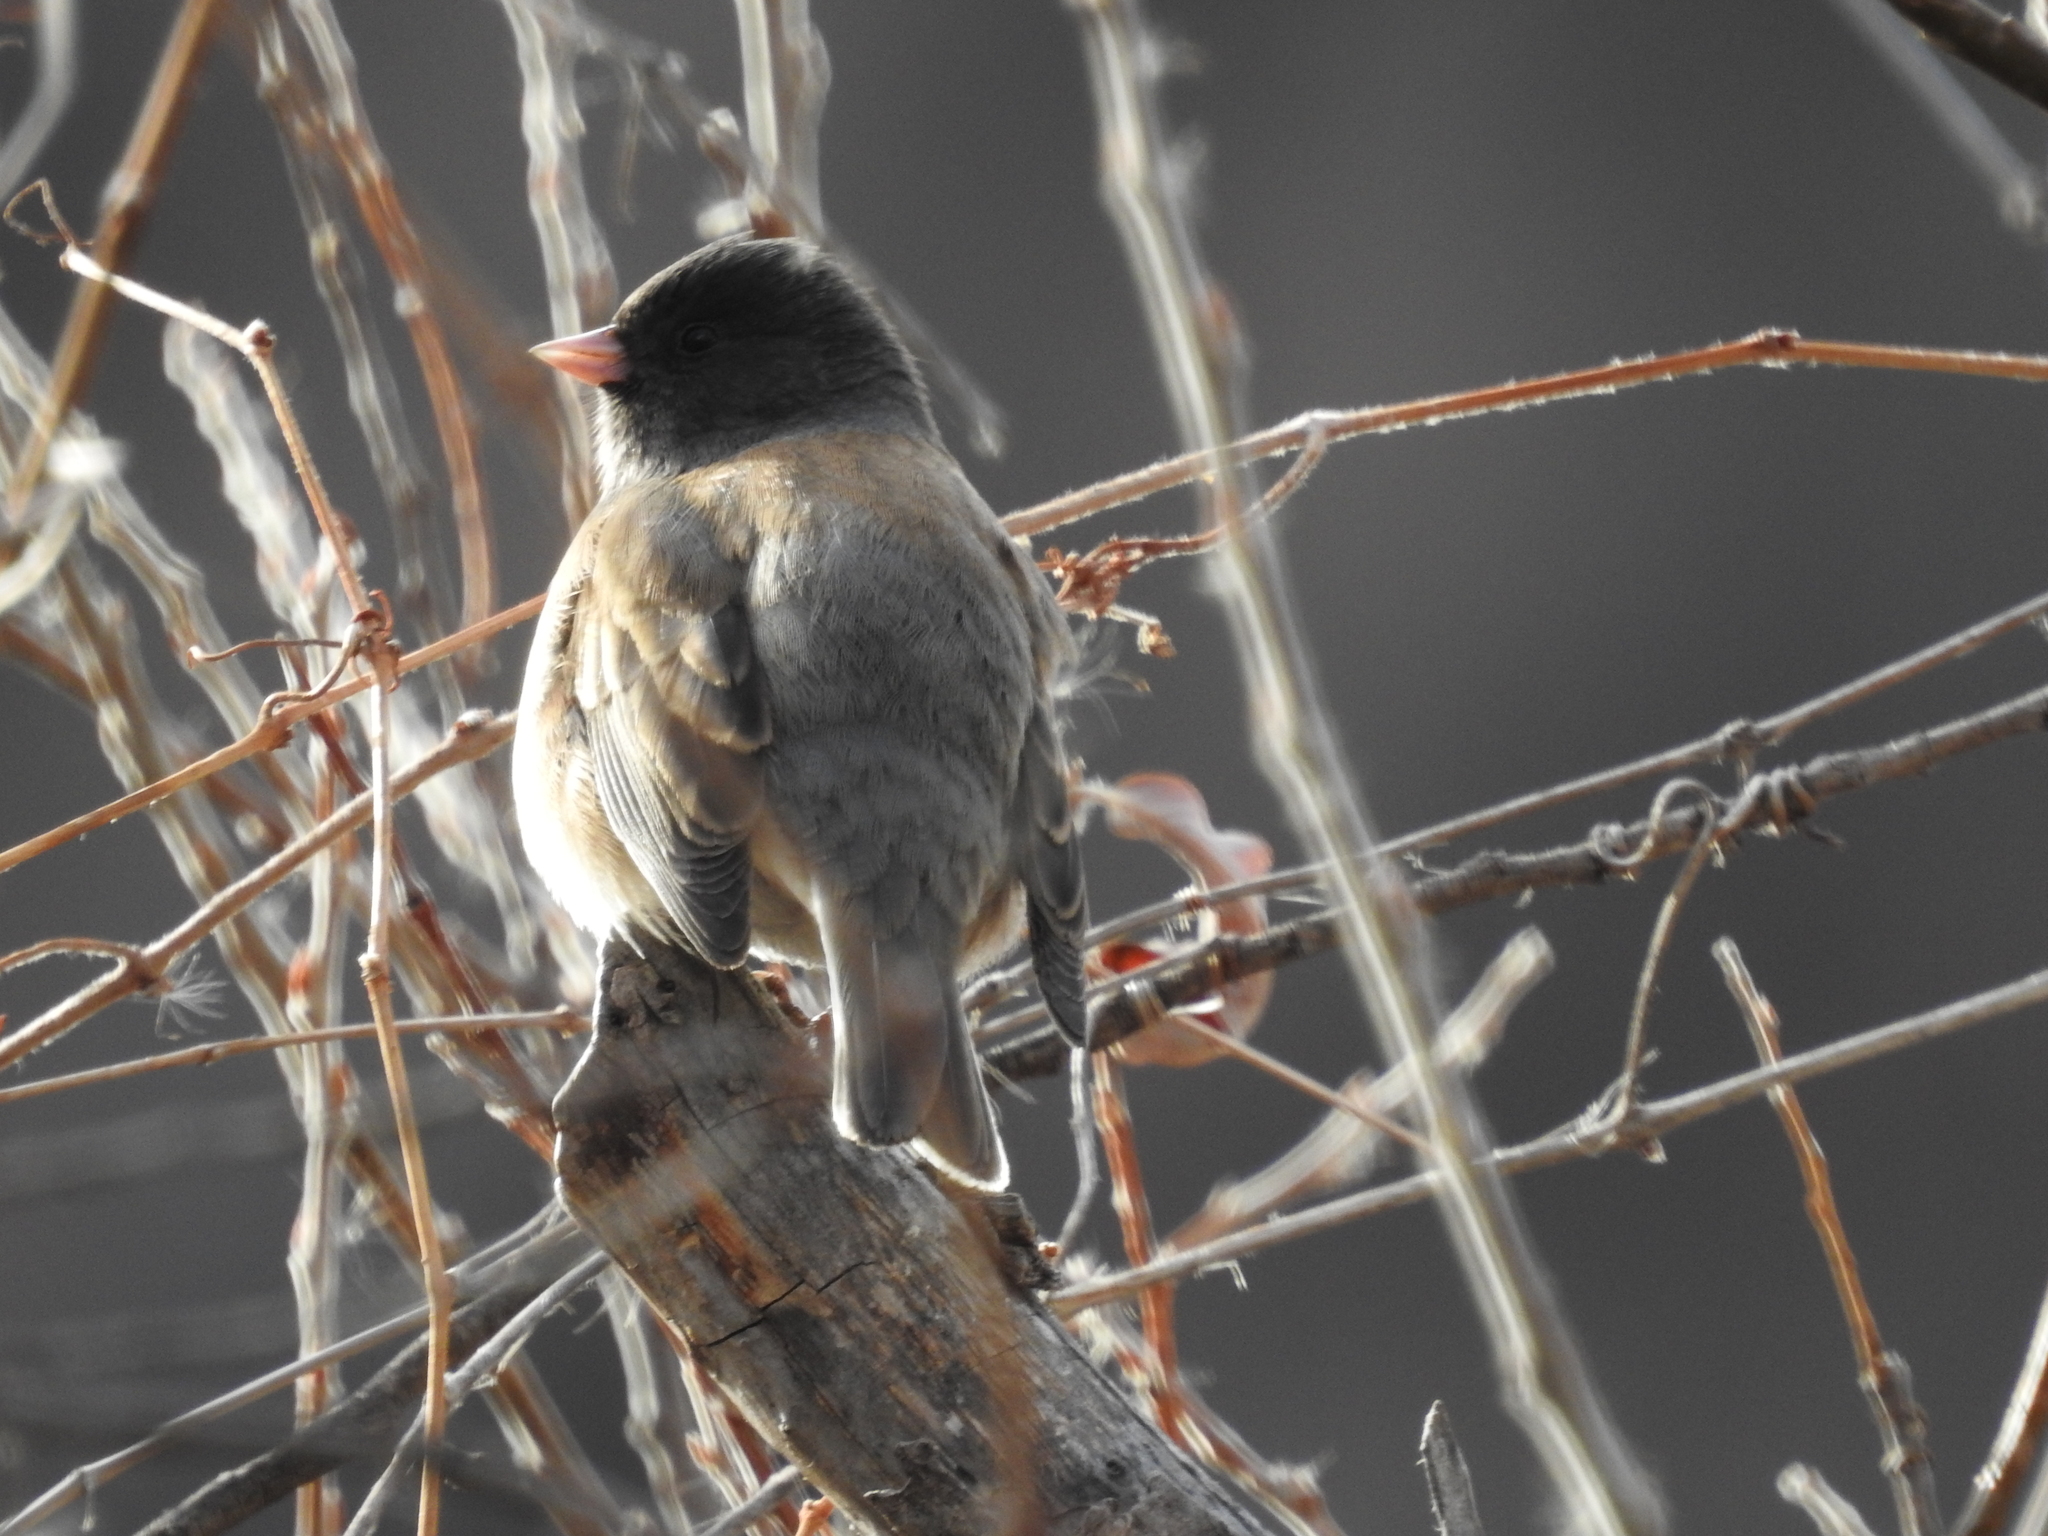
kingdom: Animalia
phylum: Chordata
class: Aves
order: Passeriformes
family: Passerellidae
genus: Junco
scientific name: Junco hyemalis
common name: Dark-eyed junco
